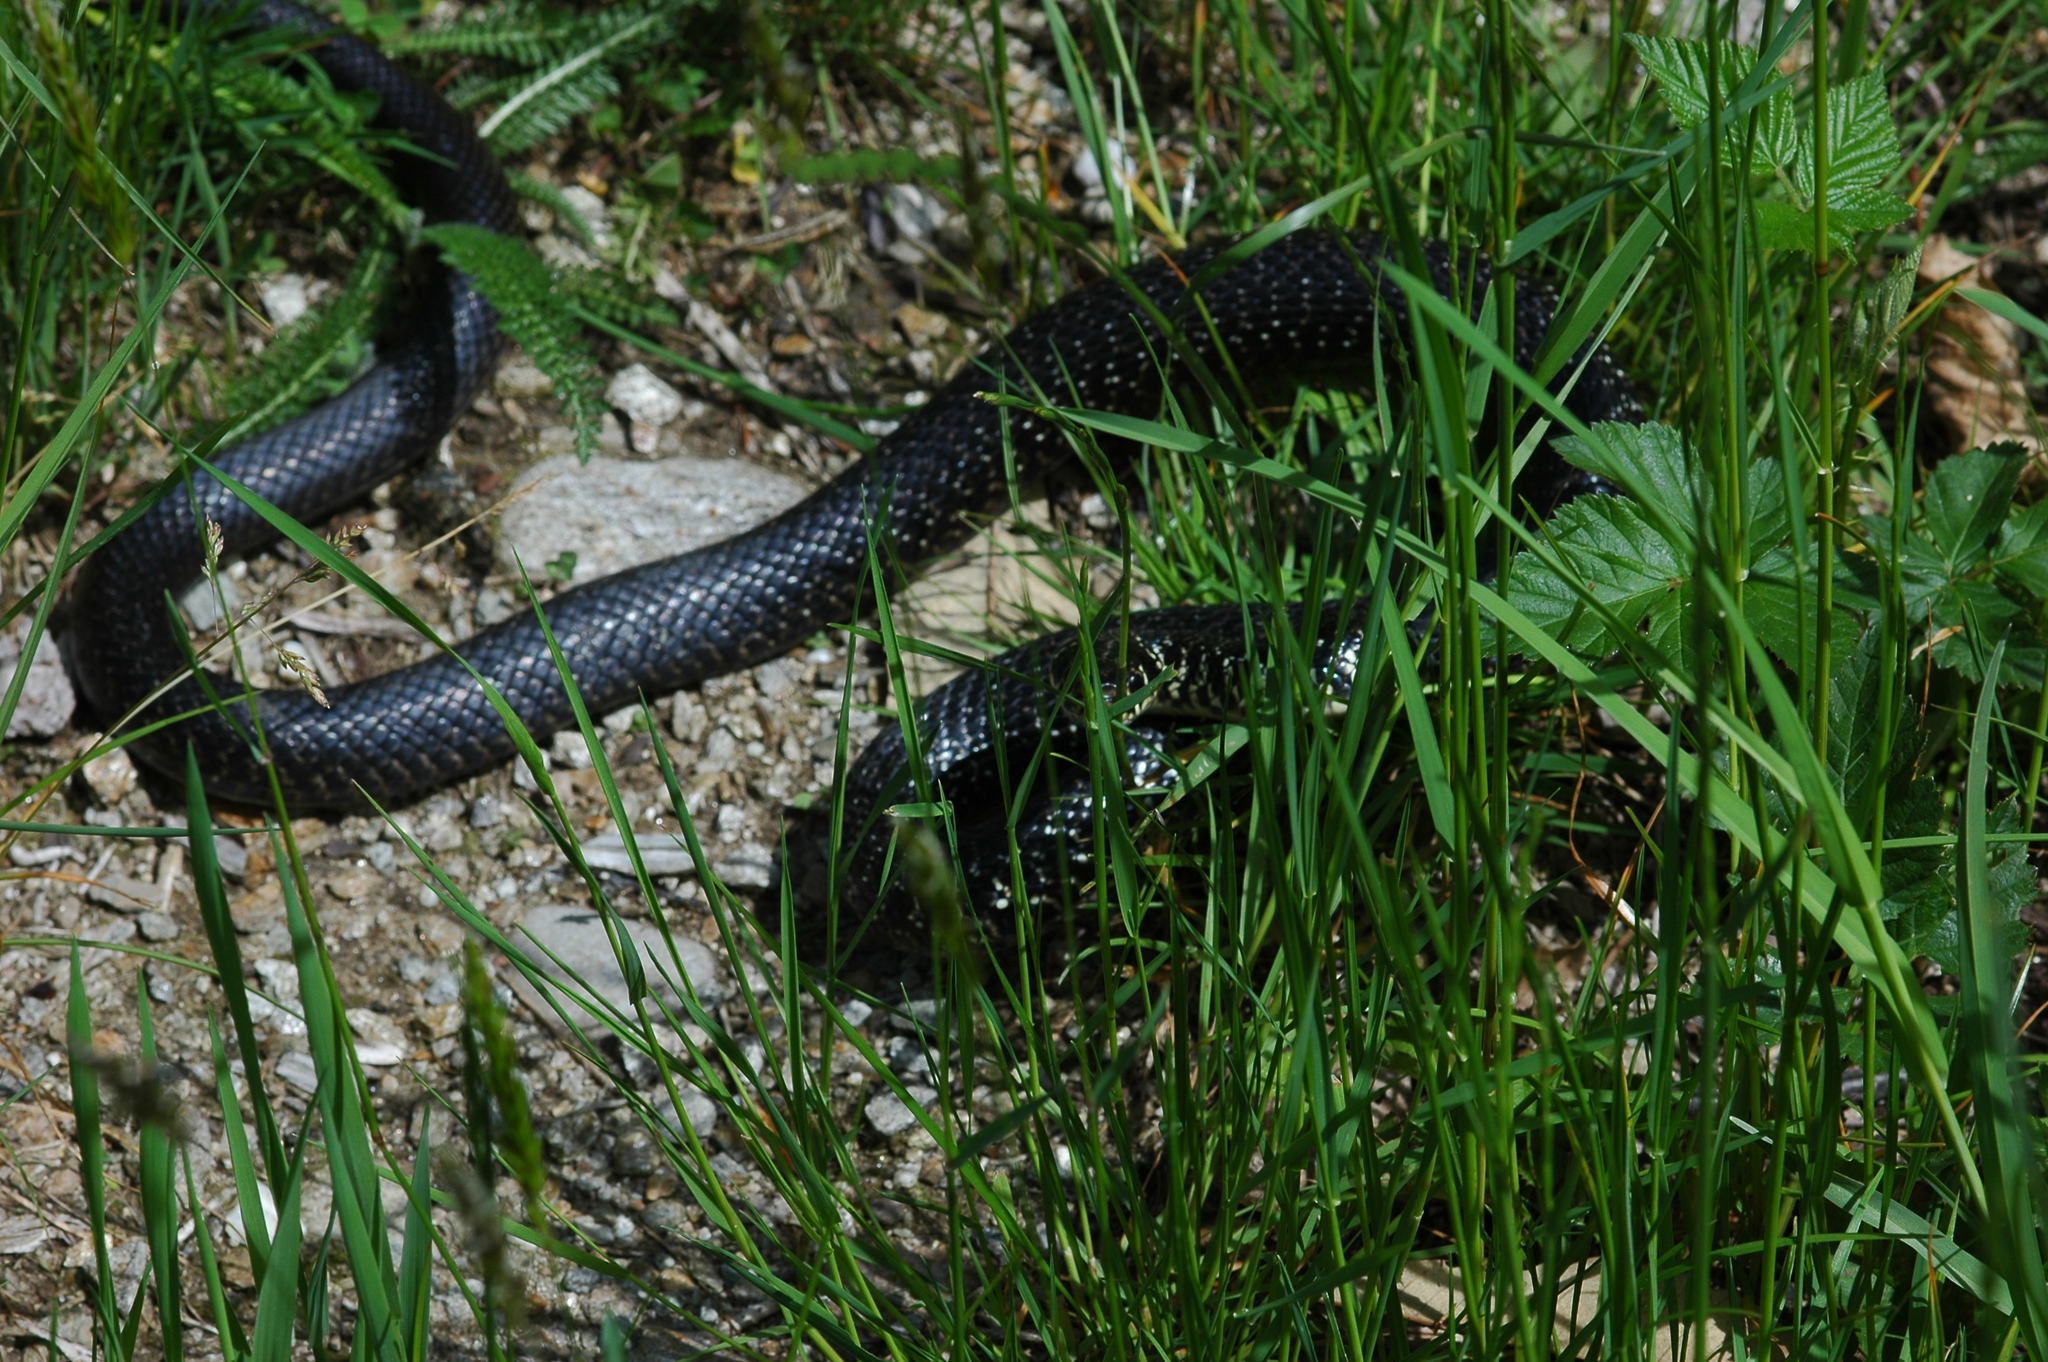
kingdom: Animalia
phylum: Chordata
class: Squamata
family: Colubridae
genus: Hierophis
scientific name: Hierophis viridiflavus
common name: Green whip snake
